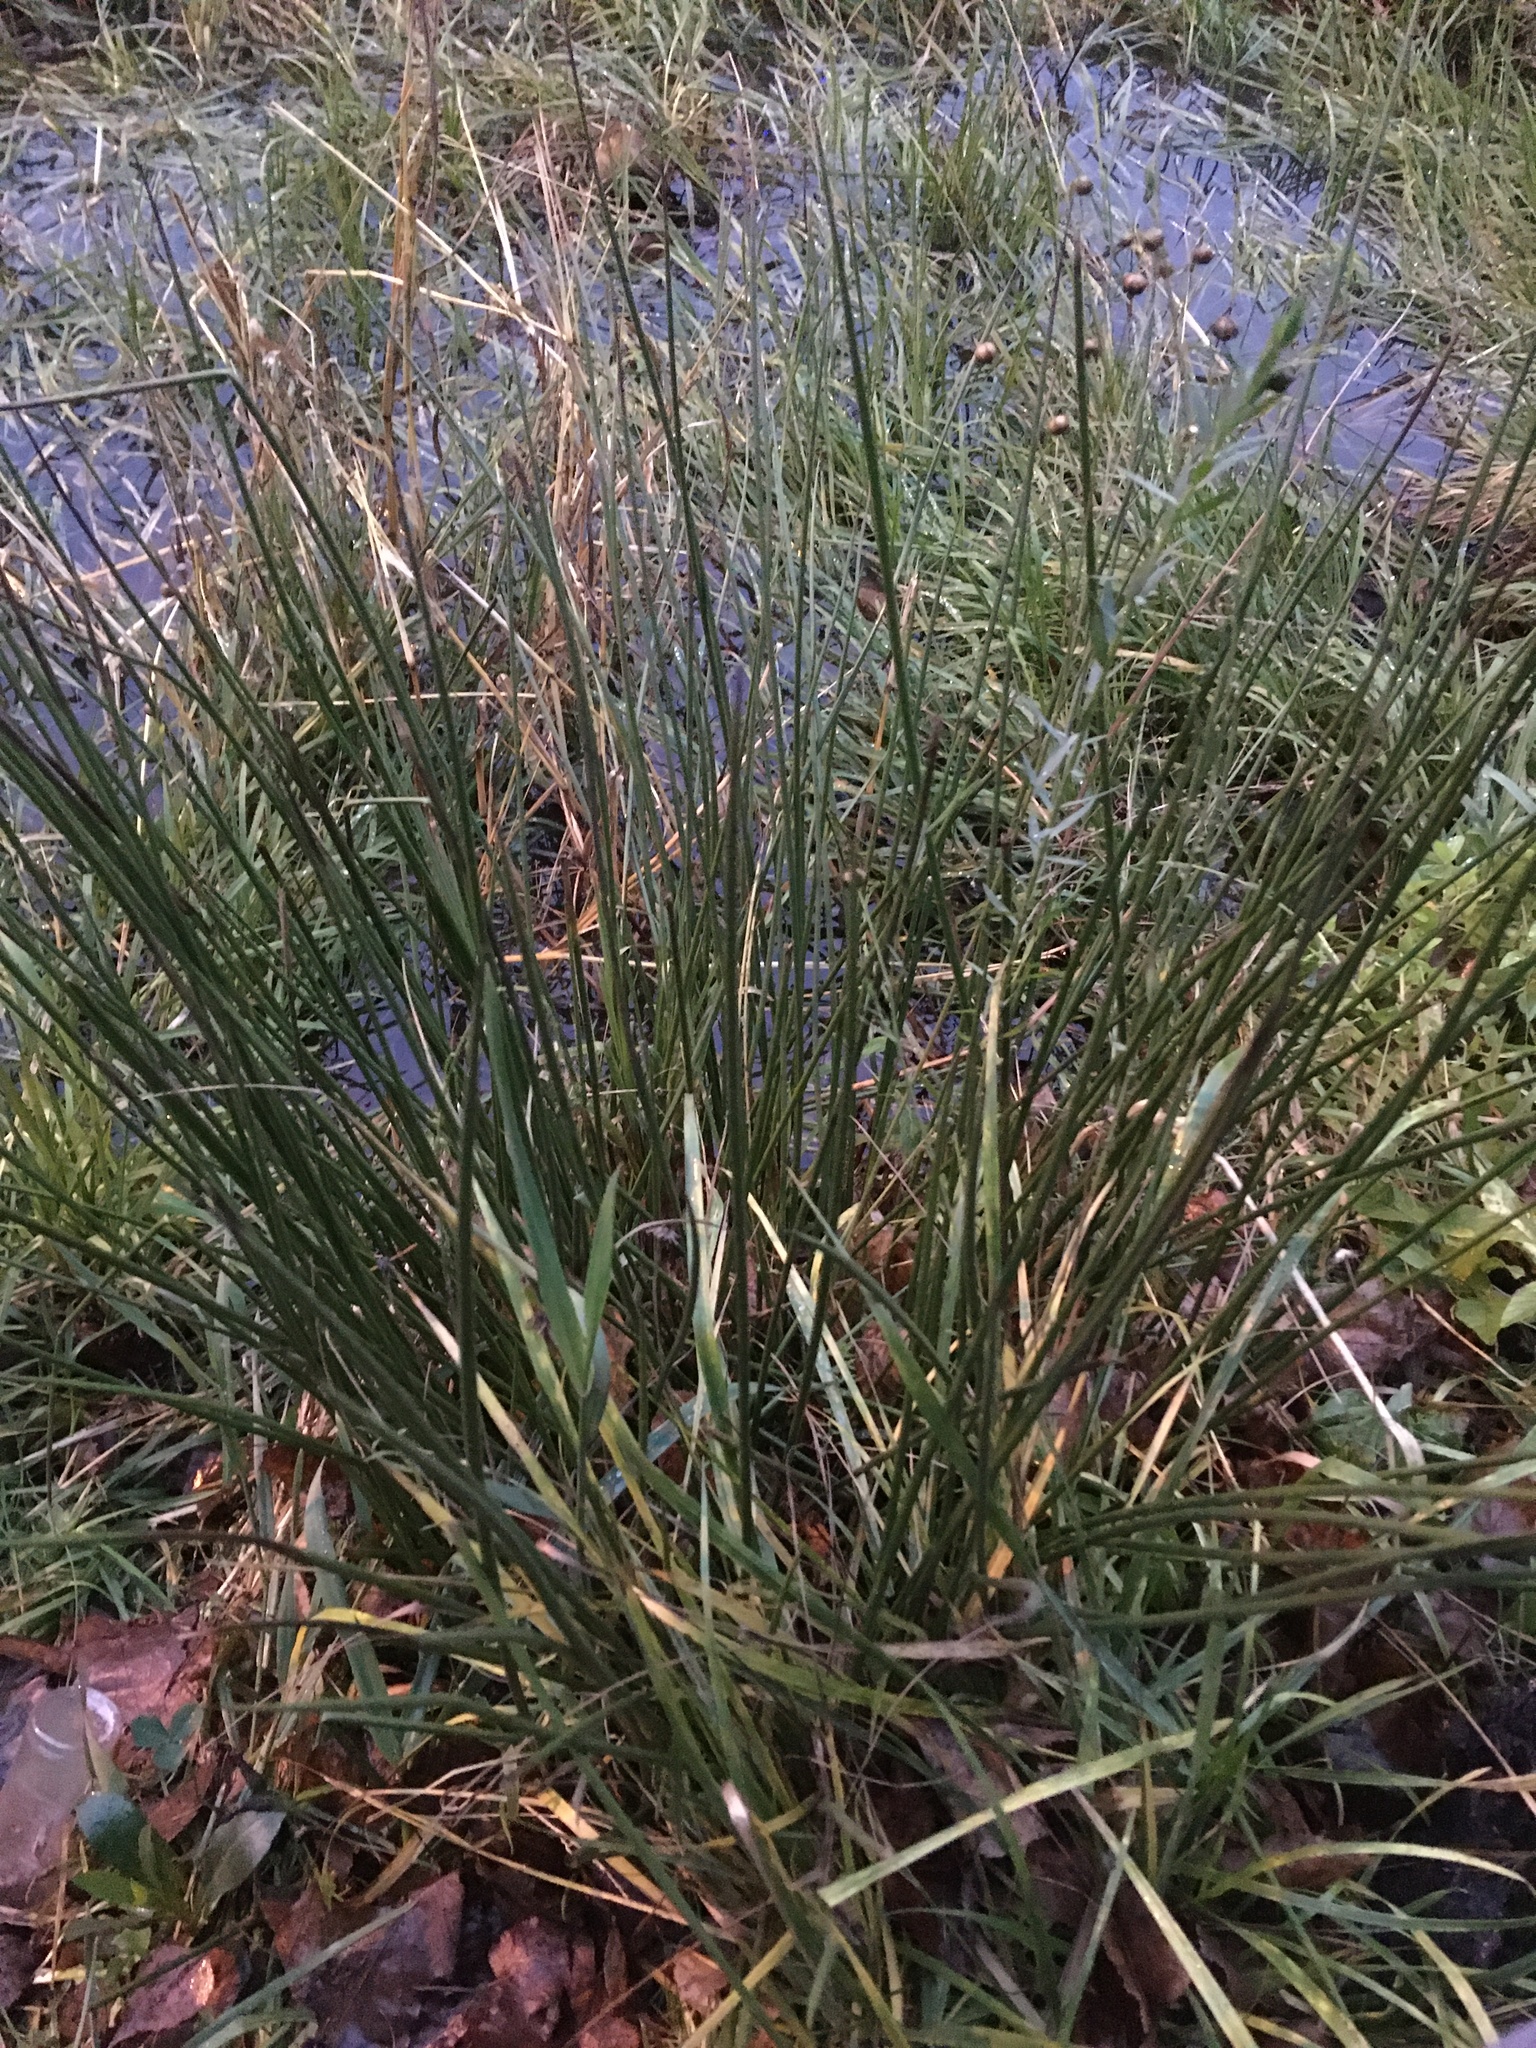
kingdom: Plantae
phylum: Tracheophyta
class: Liliopsida
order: Poales
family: Juncaceae
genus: Juncus
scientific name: Juncus effusus
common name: Soft rush
